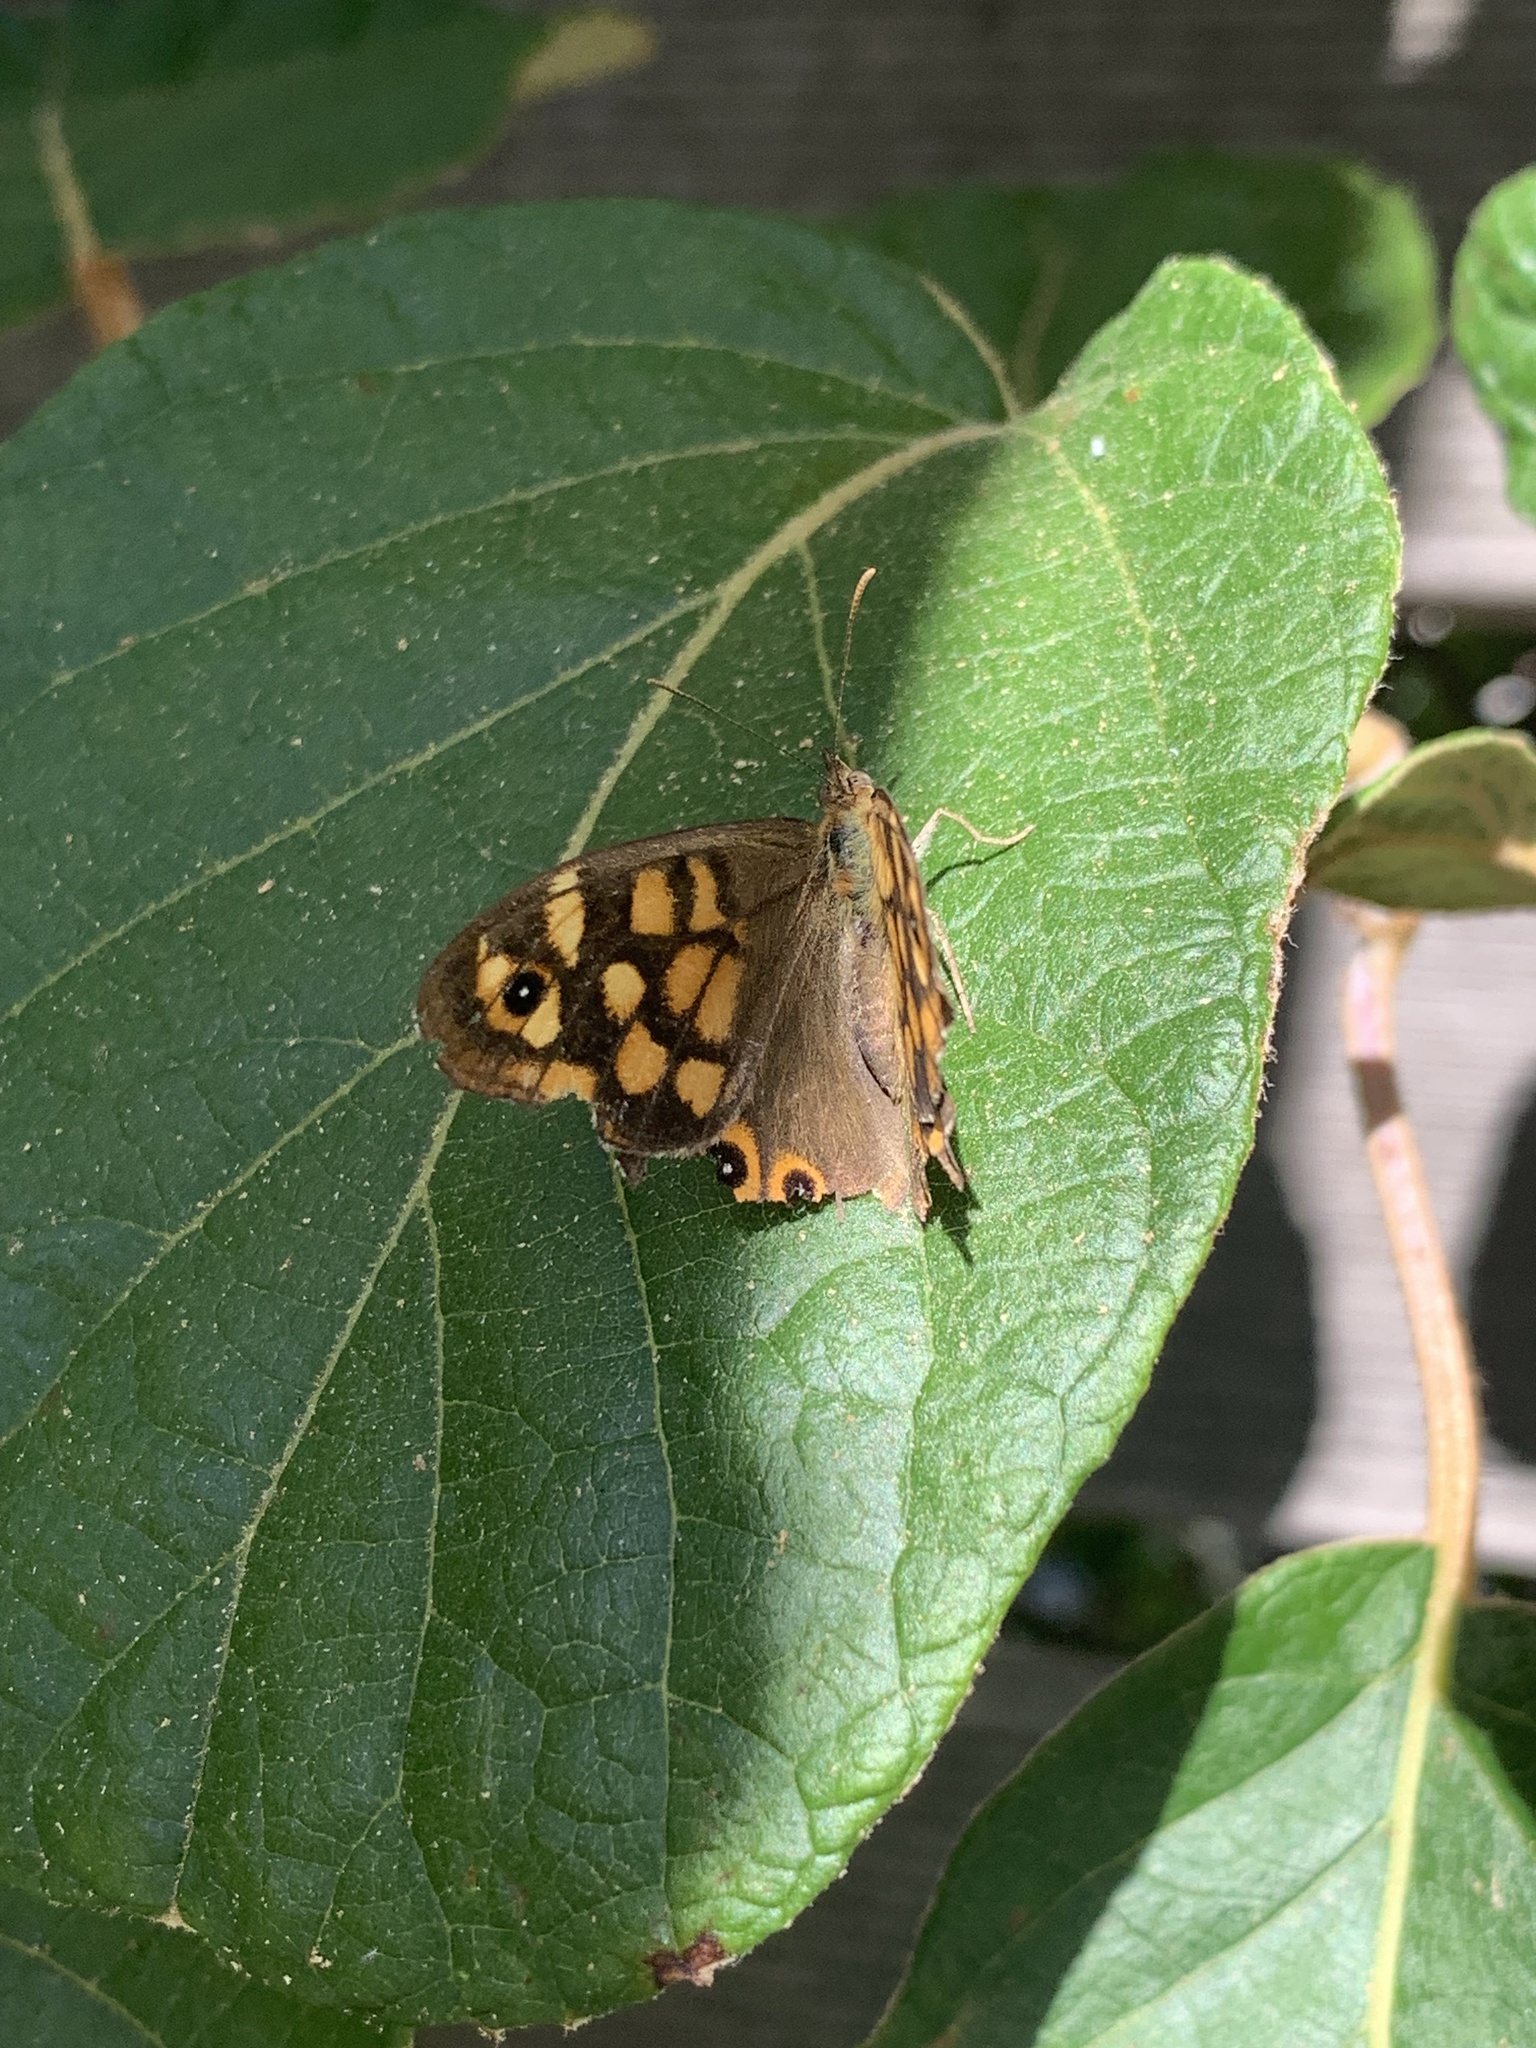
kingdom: Animalia
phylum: Arthropoda
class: Insecta
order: Lepidoptera
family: Nymphalidae
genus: Pararge
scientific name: Pararge aegeria
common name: Speckled wood
